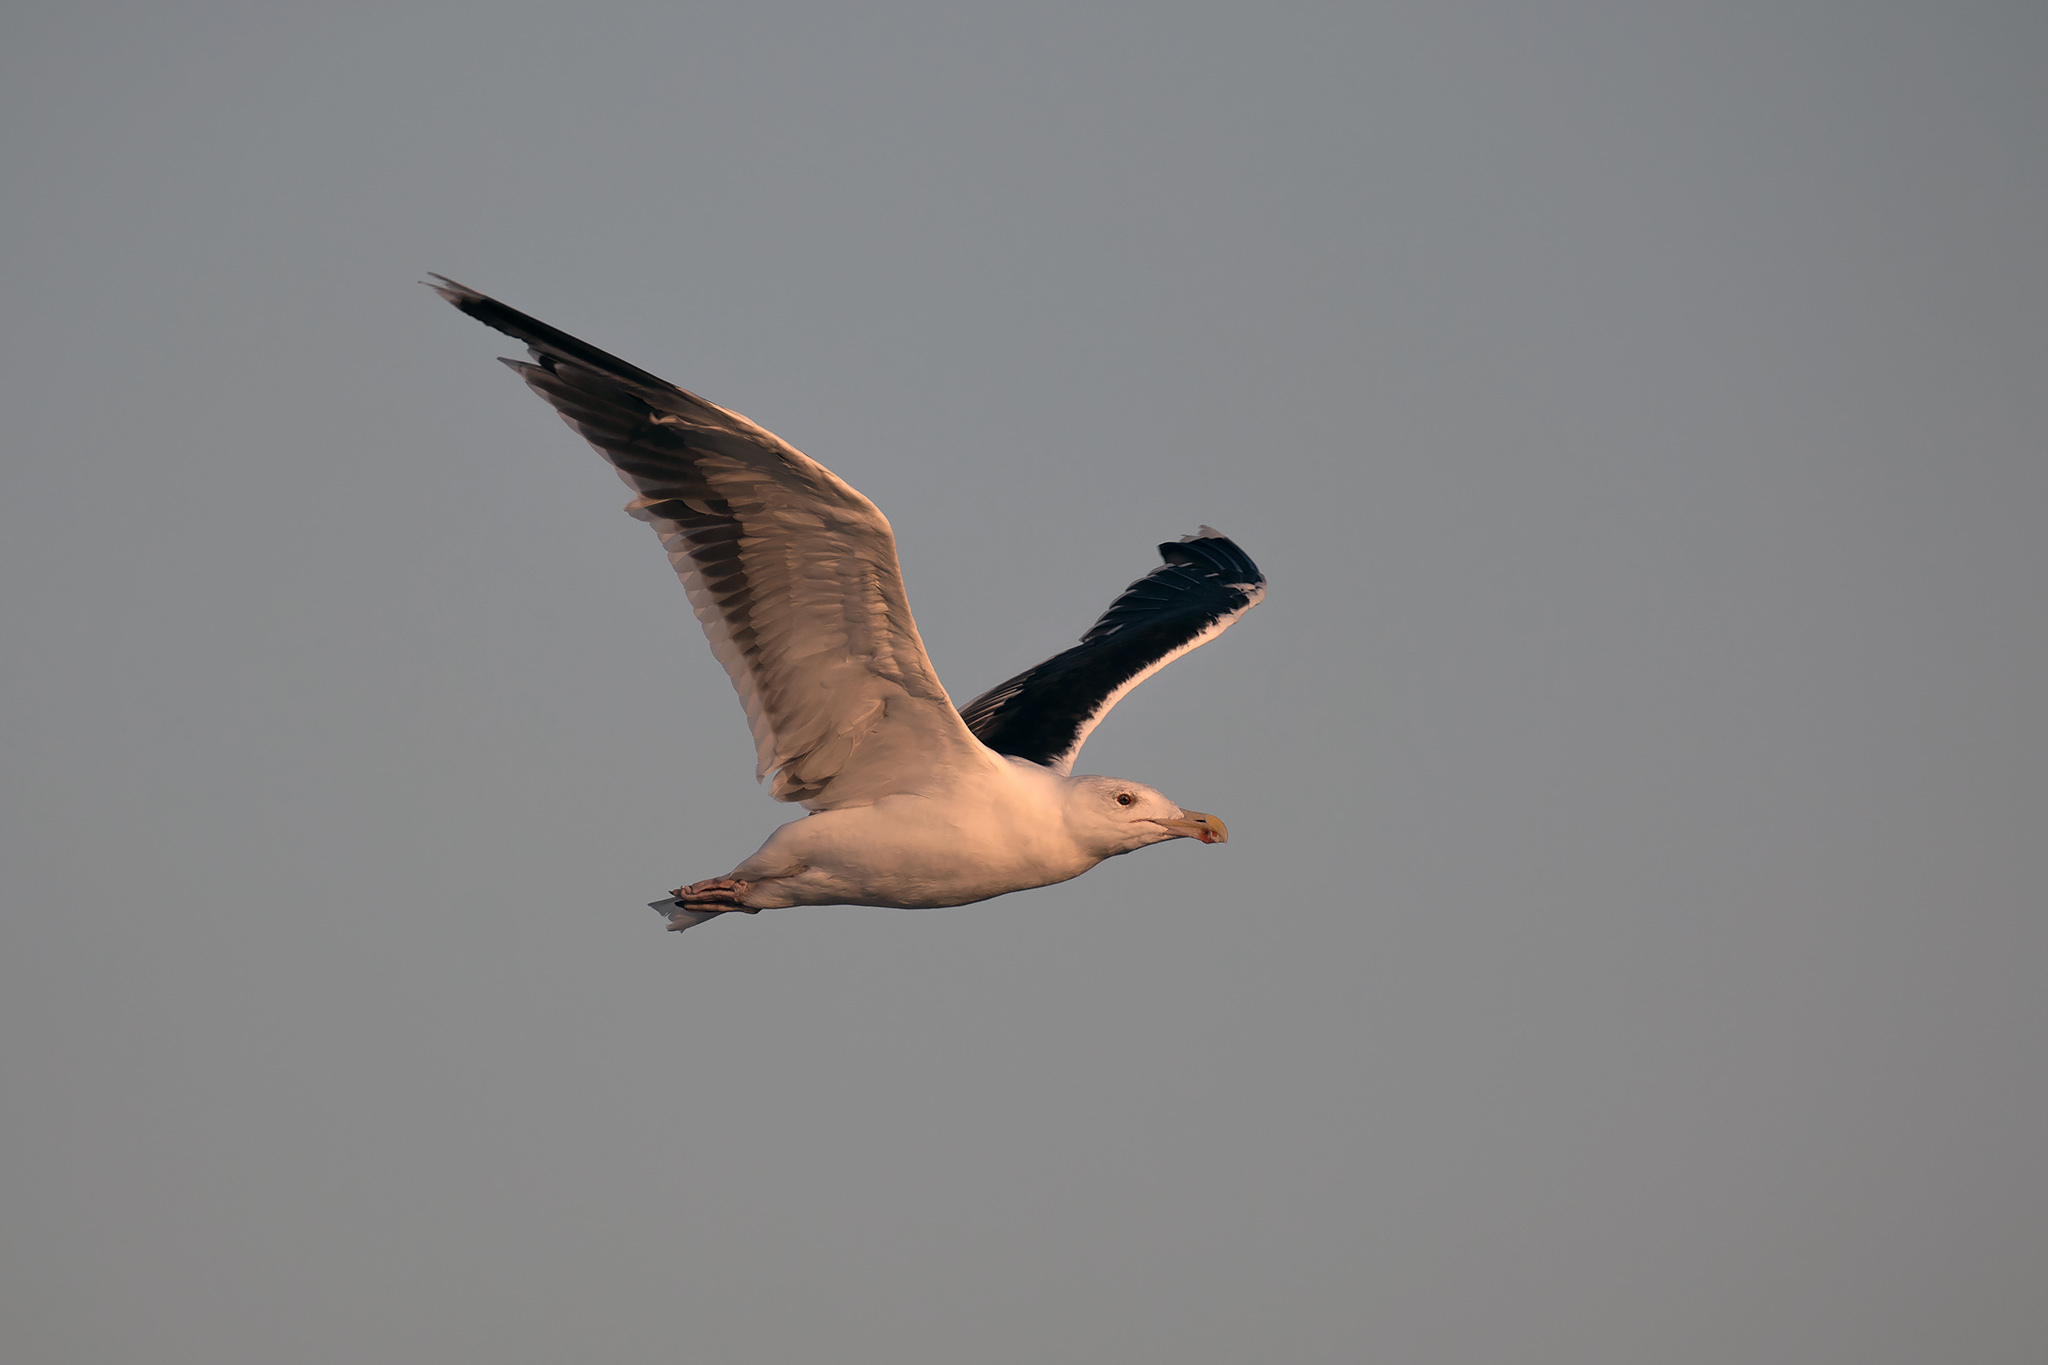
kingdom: Animalia
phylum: Chordata
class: Aves
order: Charadriiformes
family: Laridae
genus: Larus
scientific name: Larus marinus
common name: Great black-backed gull
